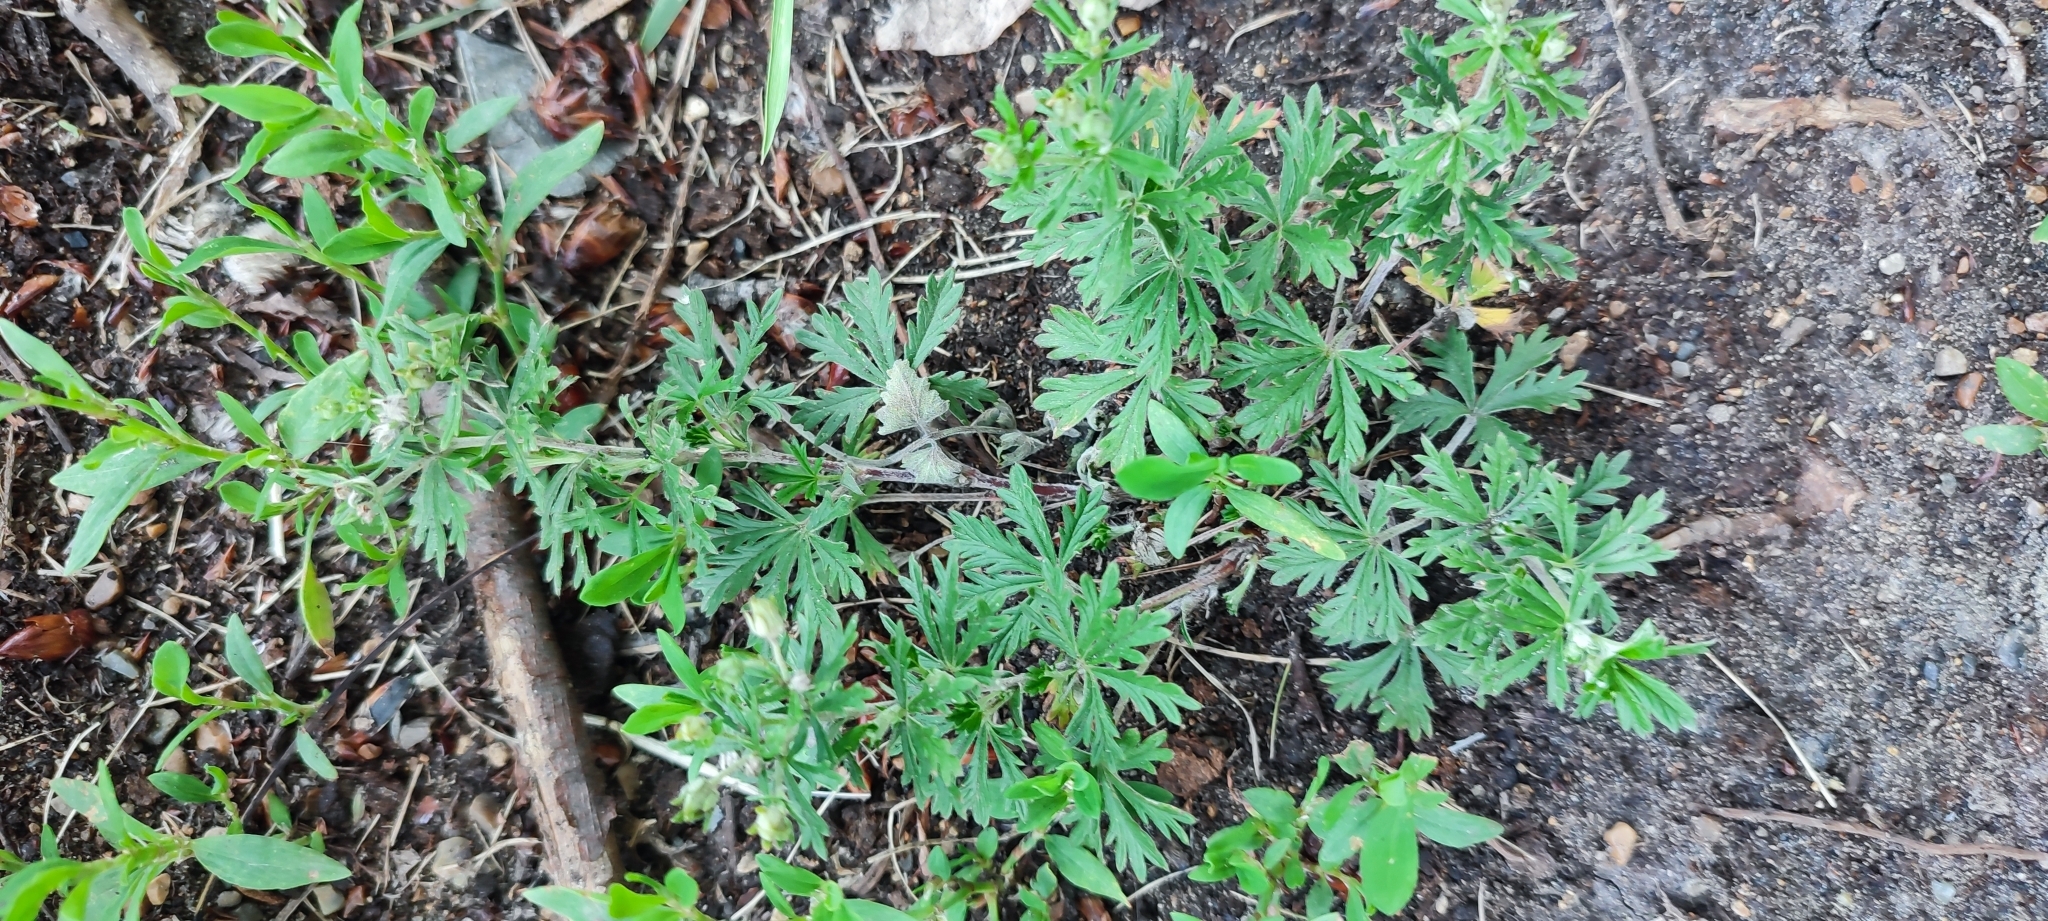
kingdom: Plantae
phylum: Tracheophyta
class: Magnoliopsida
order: Rosales
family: Rosaceae
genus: Potentilla
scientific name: Potentilla argentea
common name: Hoary cinquefoil
